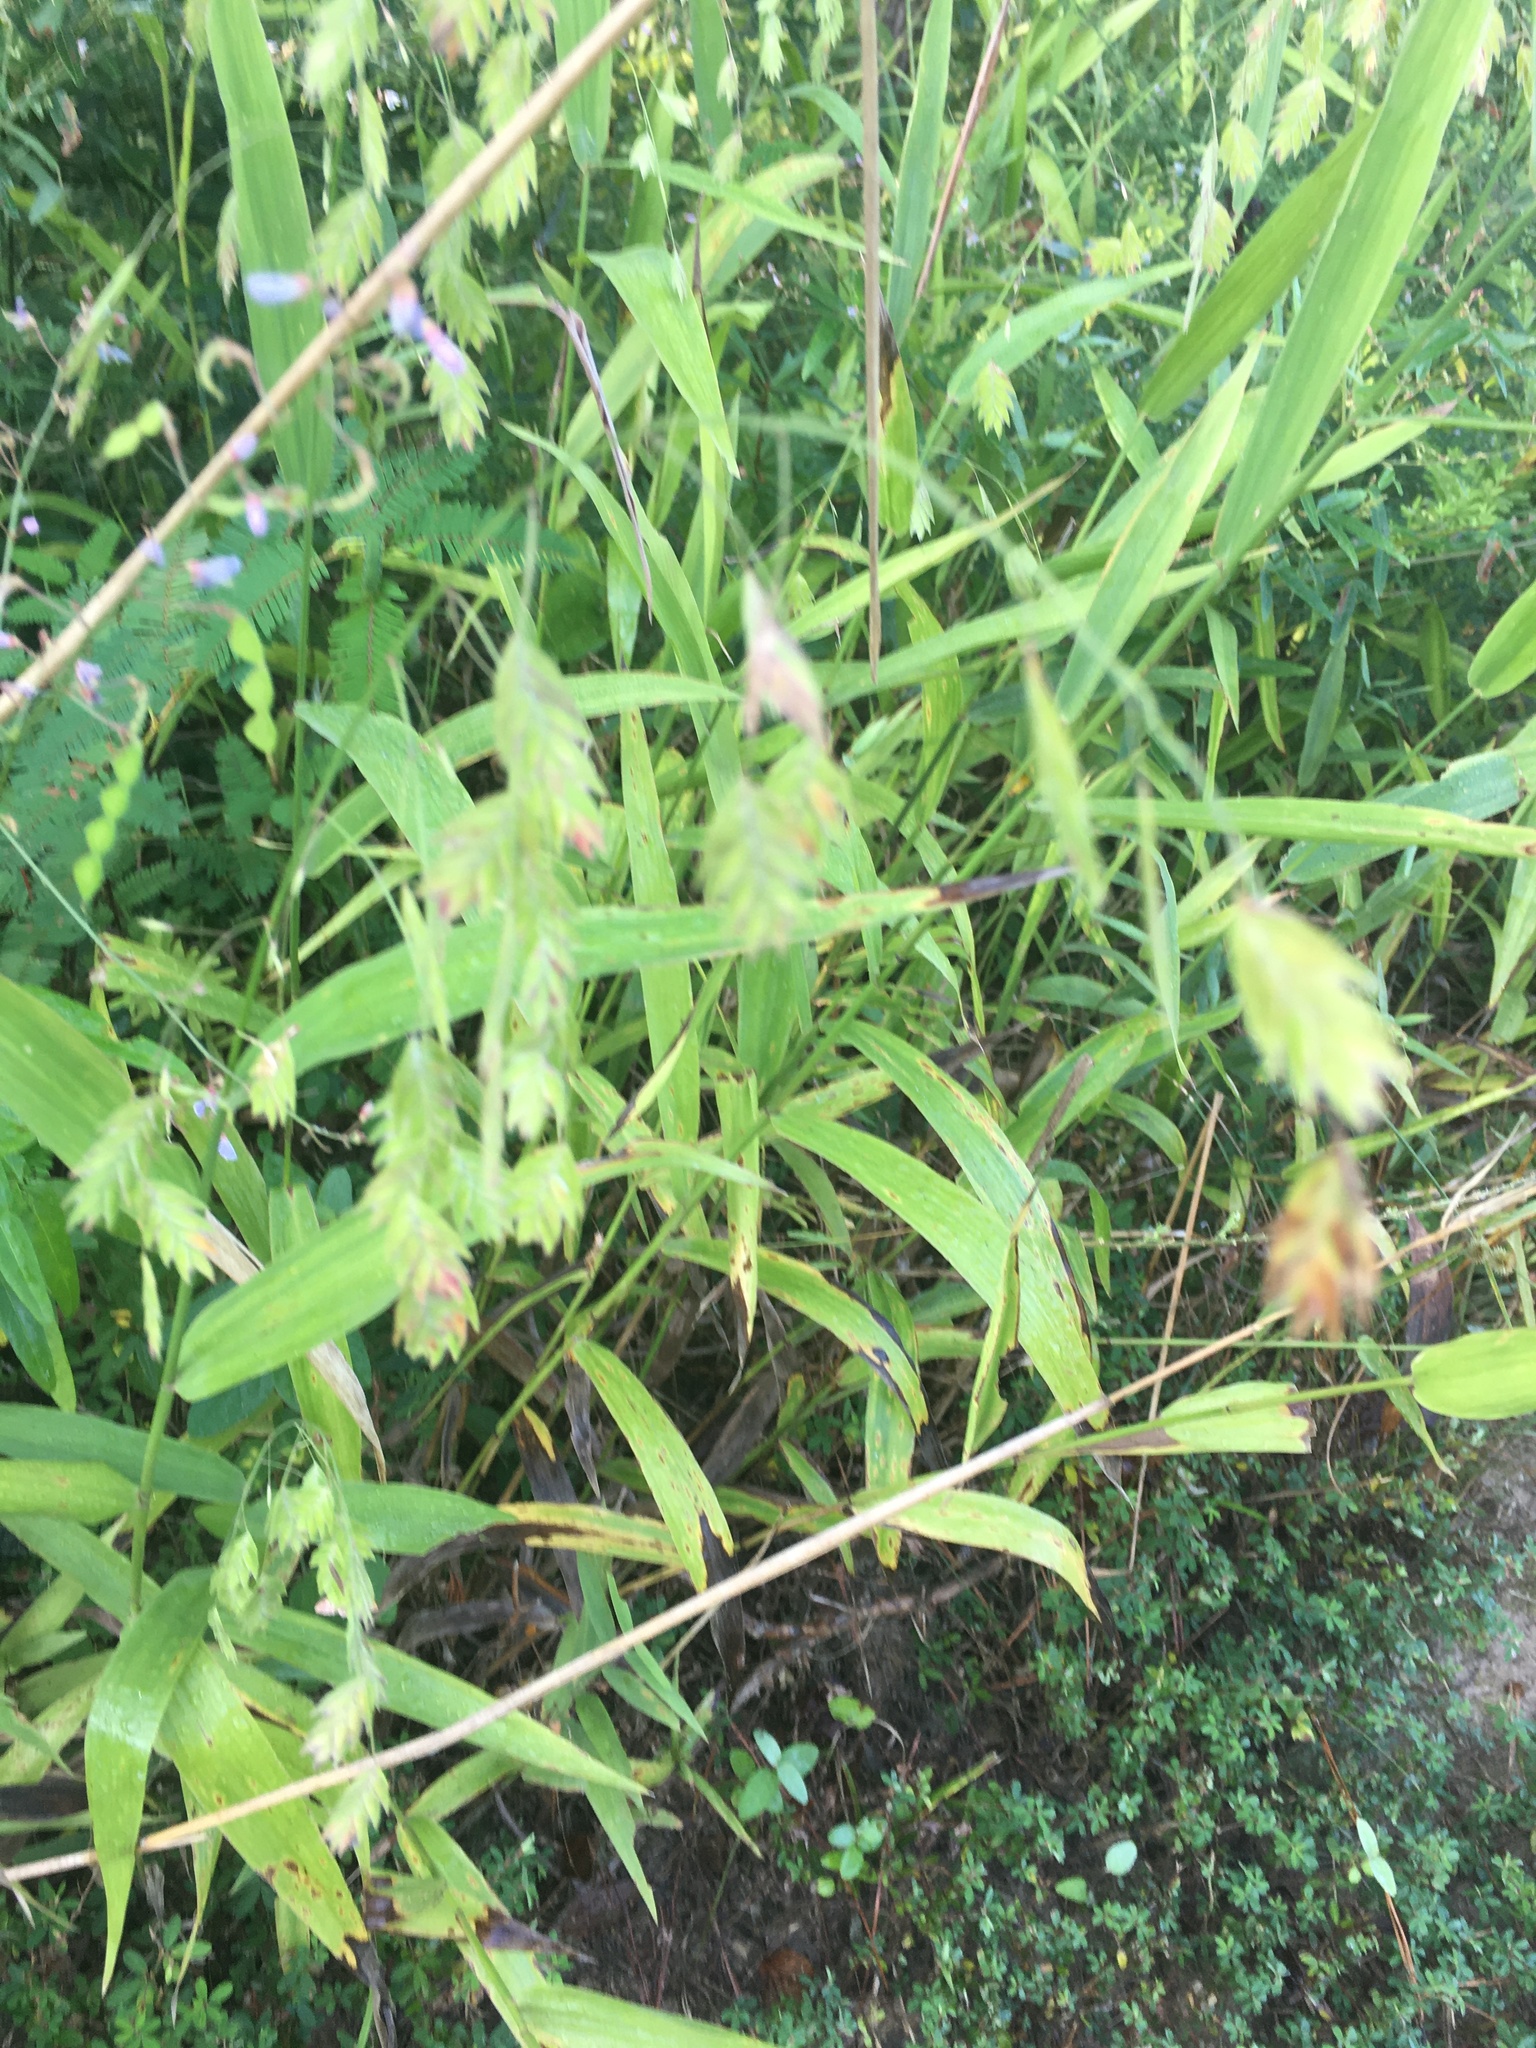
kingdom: Plantae
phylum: Tracheophyta
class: Liliopsida
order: Poales
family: Poaceae
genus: Chasmanthium
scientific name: Chasmanthium latifolium
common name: Broad-leaved chasmanthium
